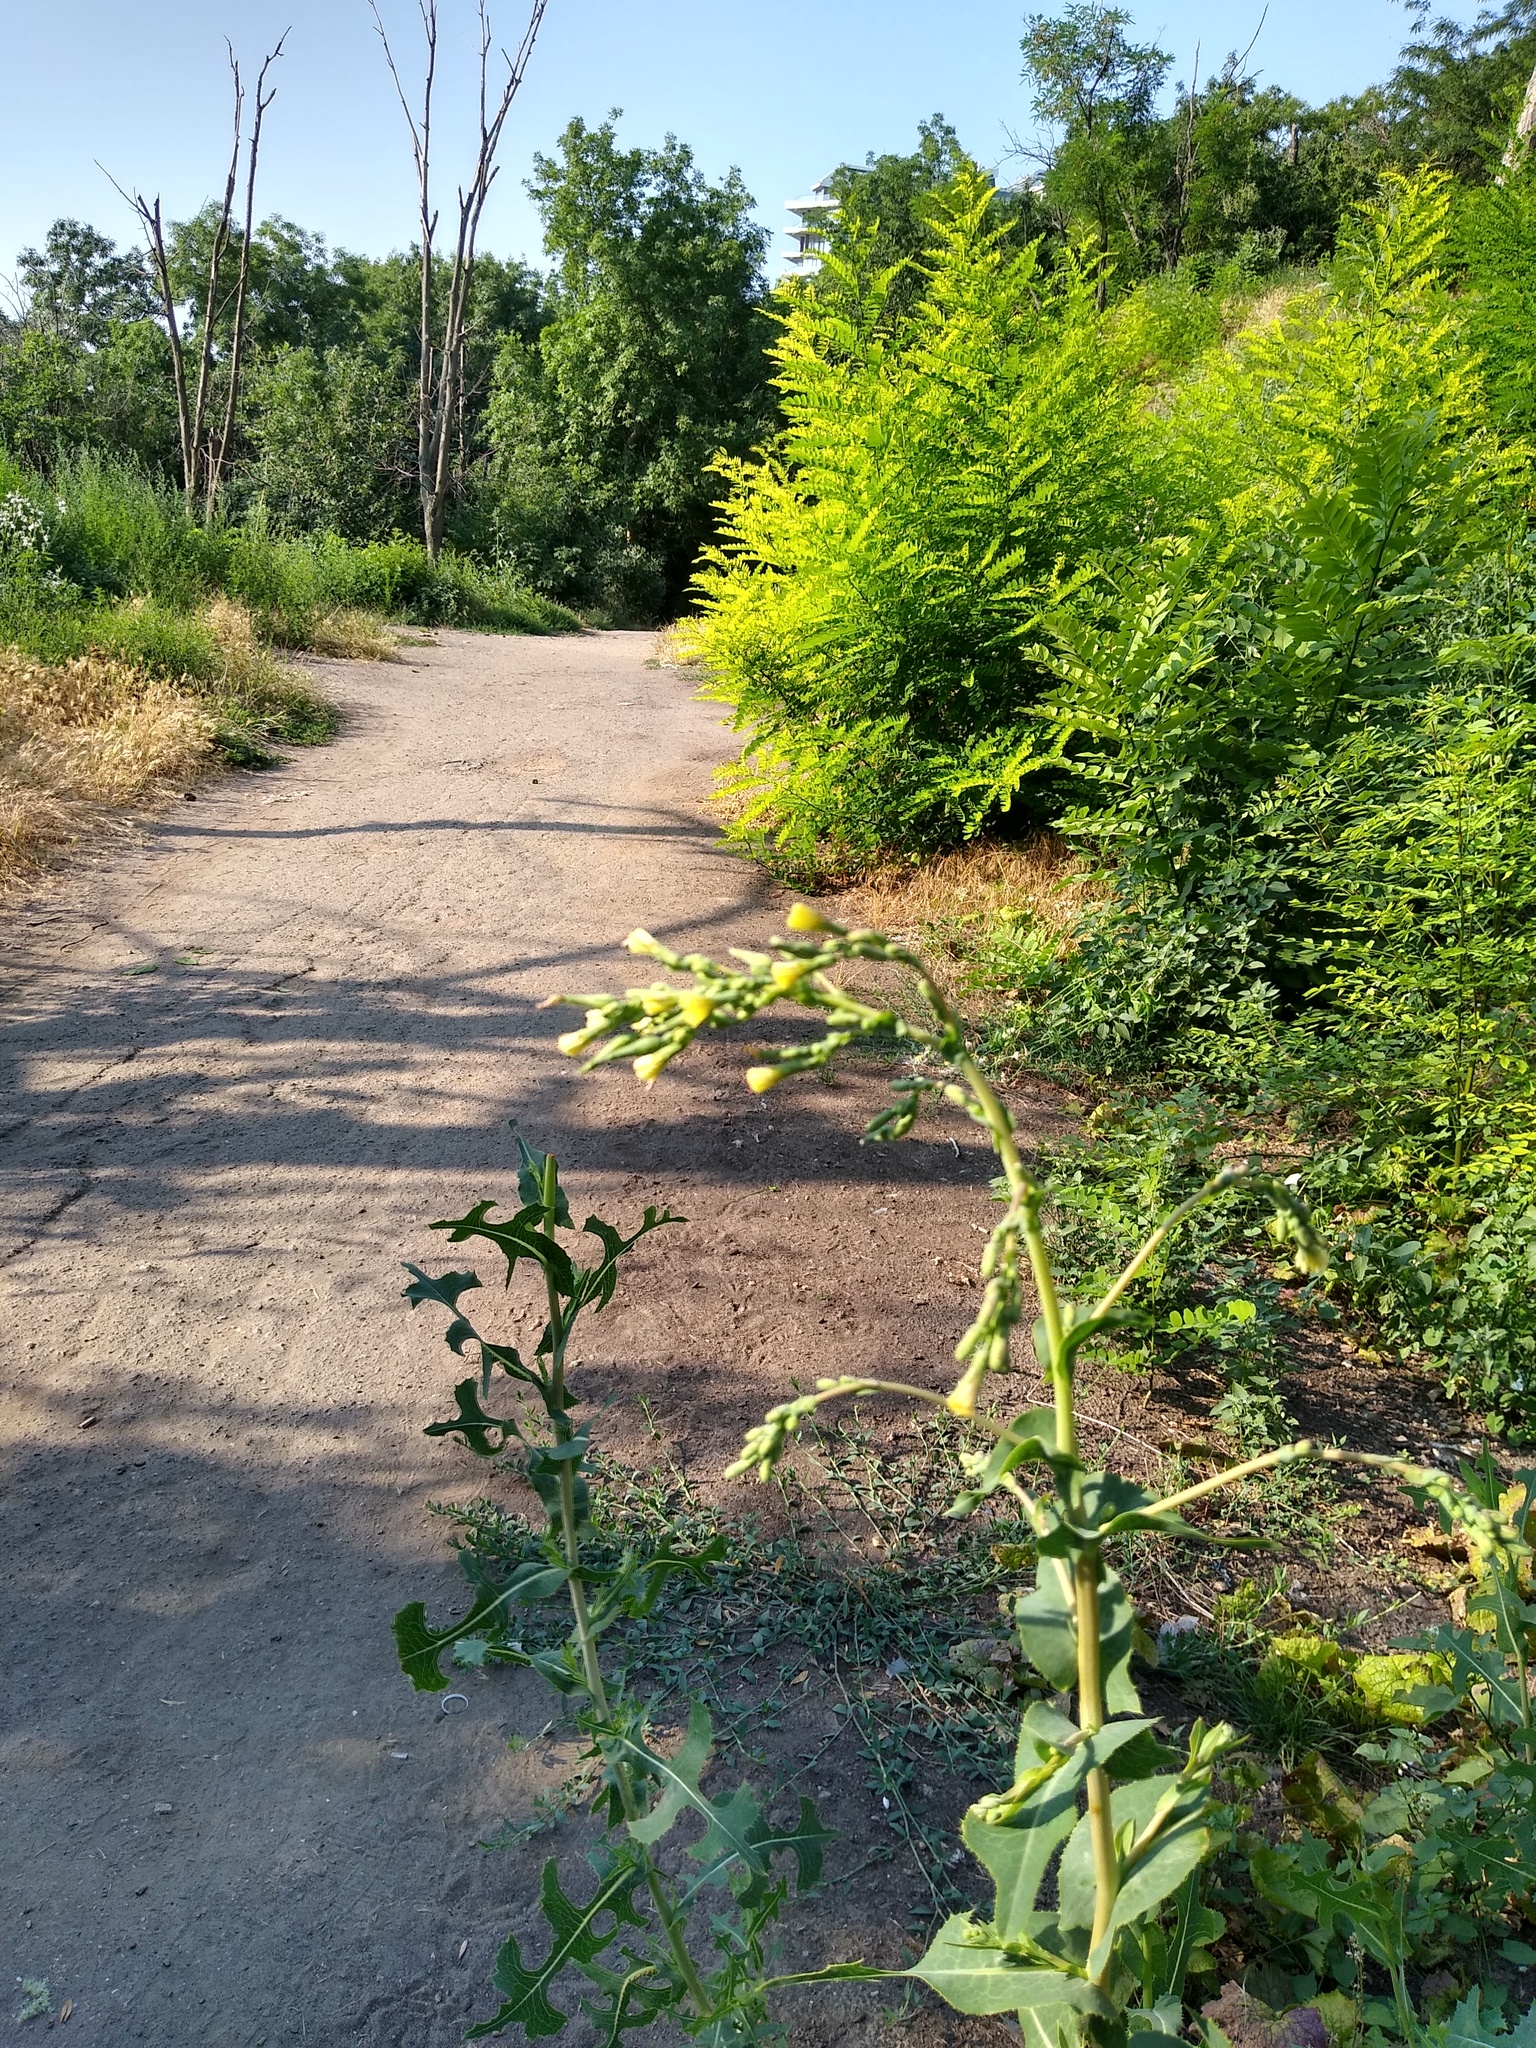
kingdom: Plantae
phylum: Tracheophyta
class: Magnoliopsida
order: Asterales
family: Asteraceae
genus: Lactuca
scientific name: Lactuca serriola
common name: Prickly lettuce
